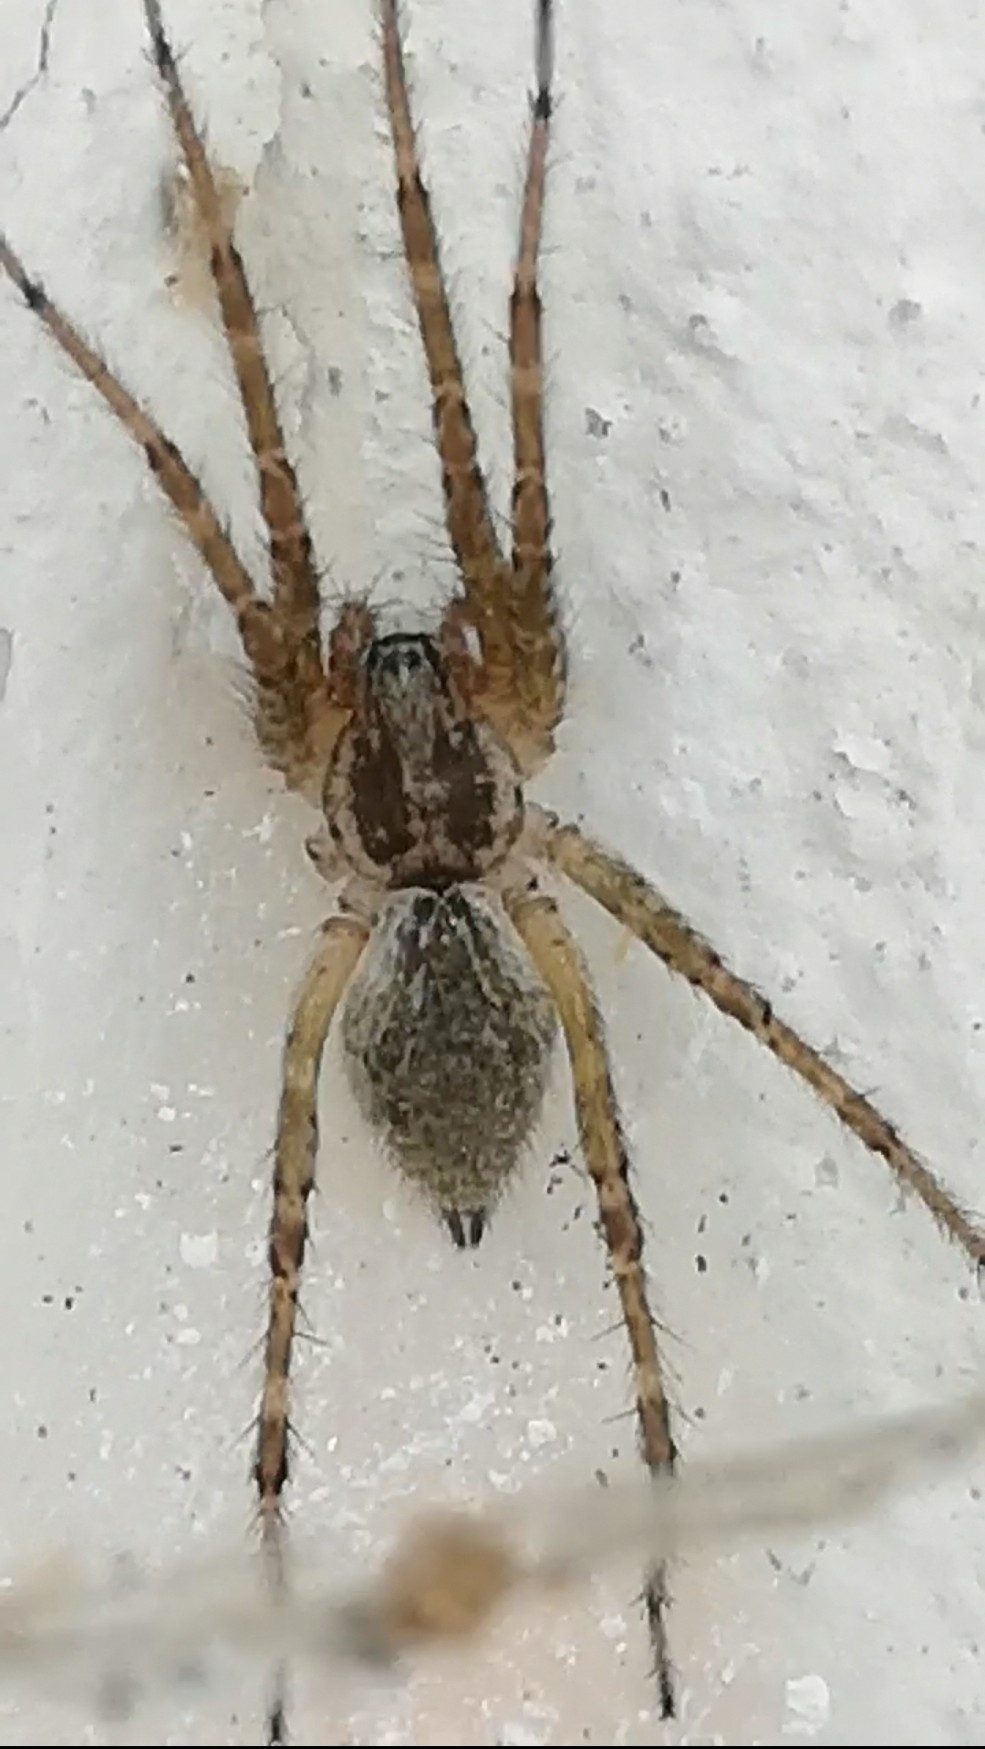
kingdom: Animalia
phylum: Arthropoda
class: Arachnida
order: Araneae
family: Agelenidae
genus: Allagelena
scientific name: Allagelena gracilens
